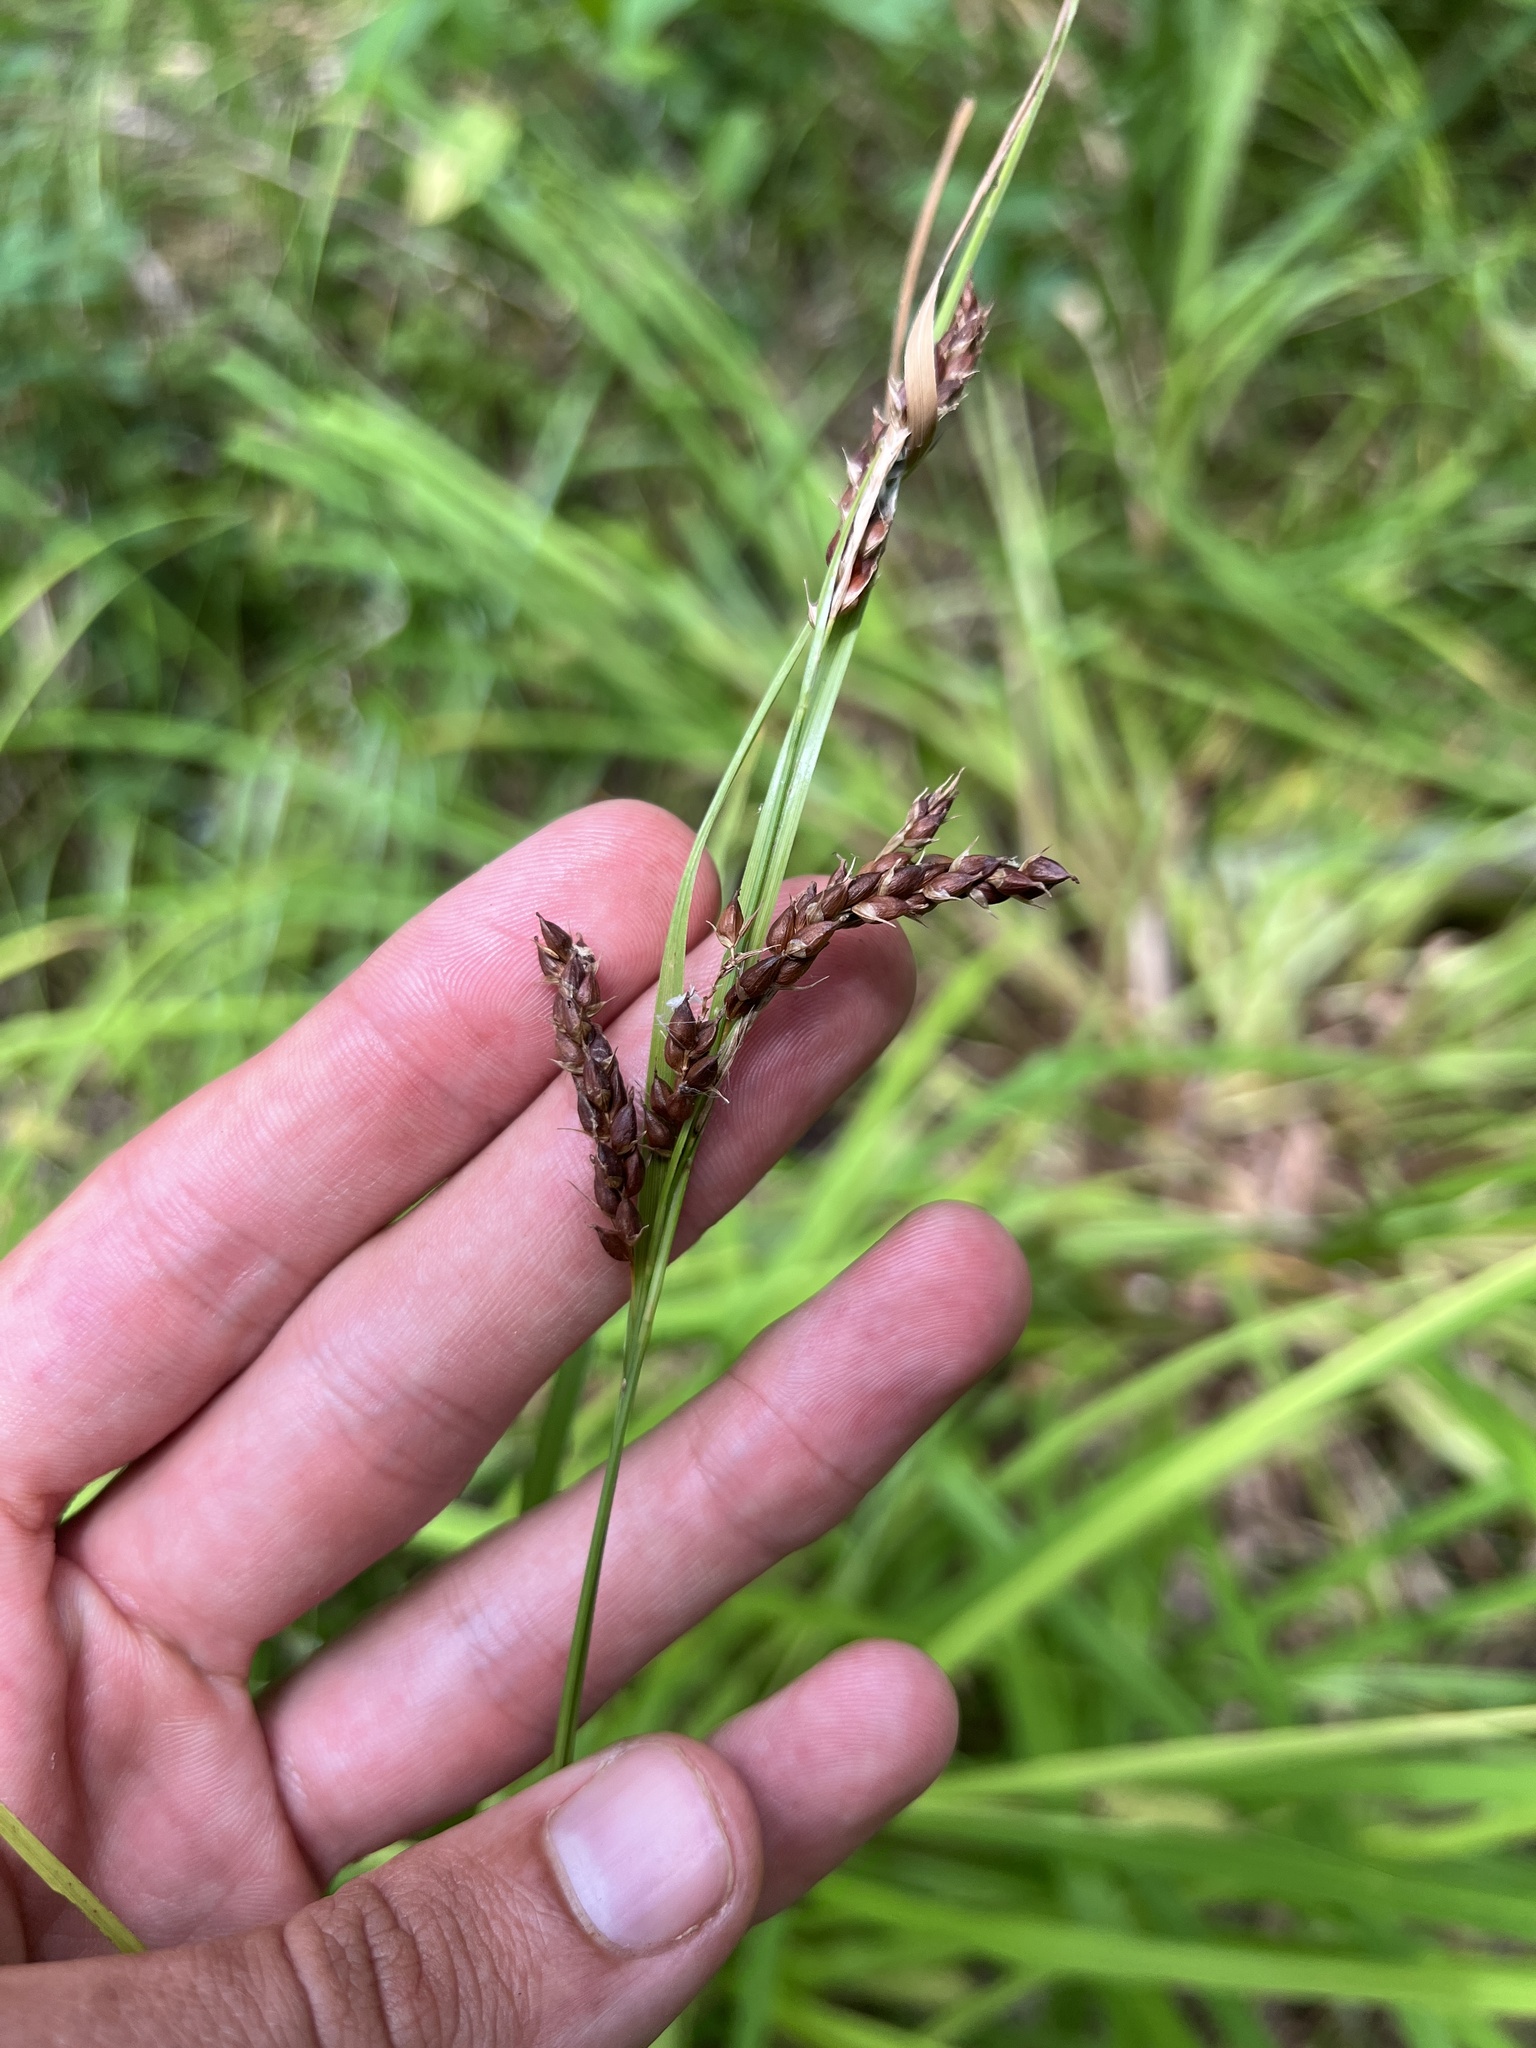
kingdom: Plantae
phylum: Tracheophyta
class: Liliopsida
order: Poales
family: Cyperaceae
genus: Carex
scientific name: Carex davisii
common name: Davis' sedge
